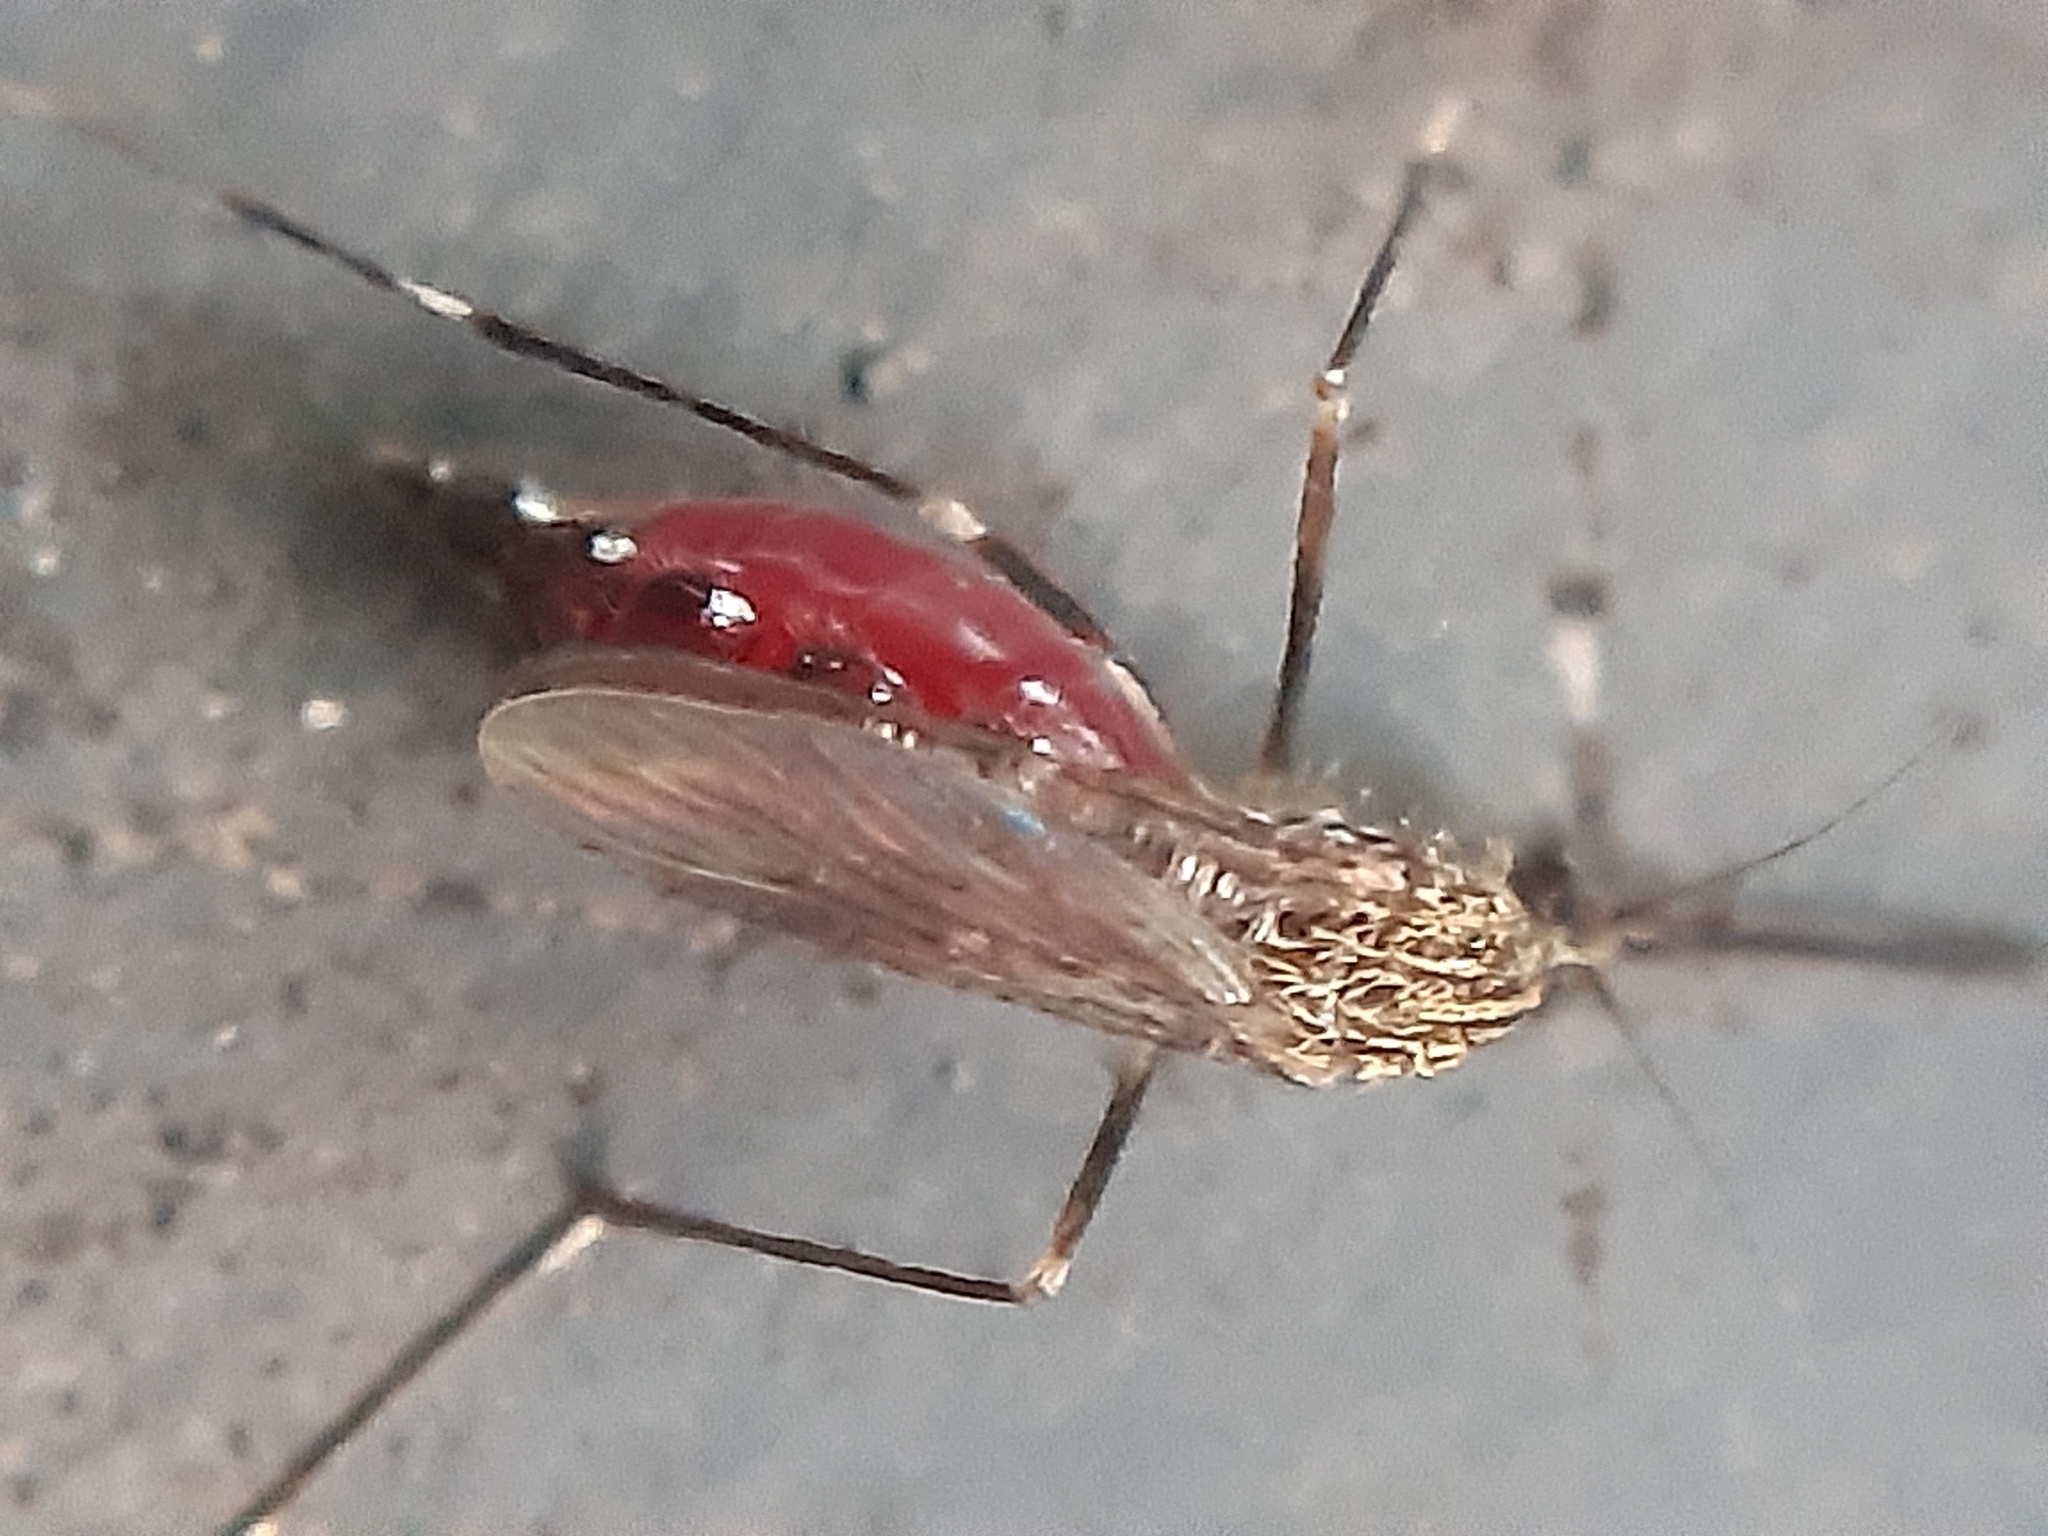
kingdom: Animalia
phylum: Arthropoda
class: Insecta
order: Diptera
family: Culicidae
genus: Aedes
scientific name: Aedes japonicus
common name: Asian bush mosquito
